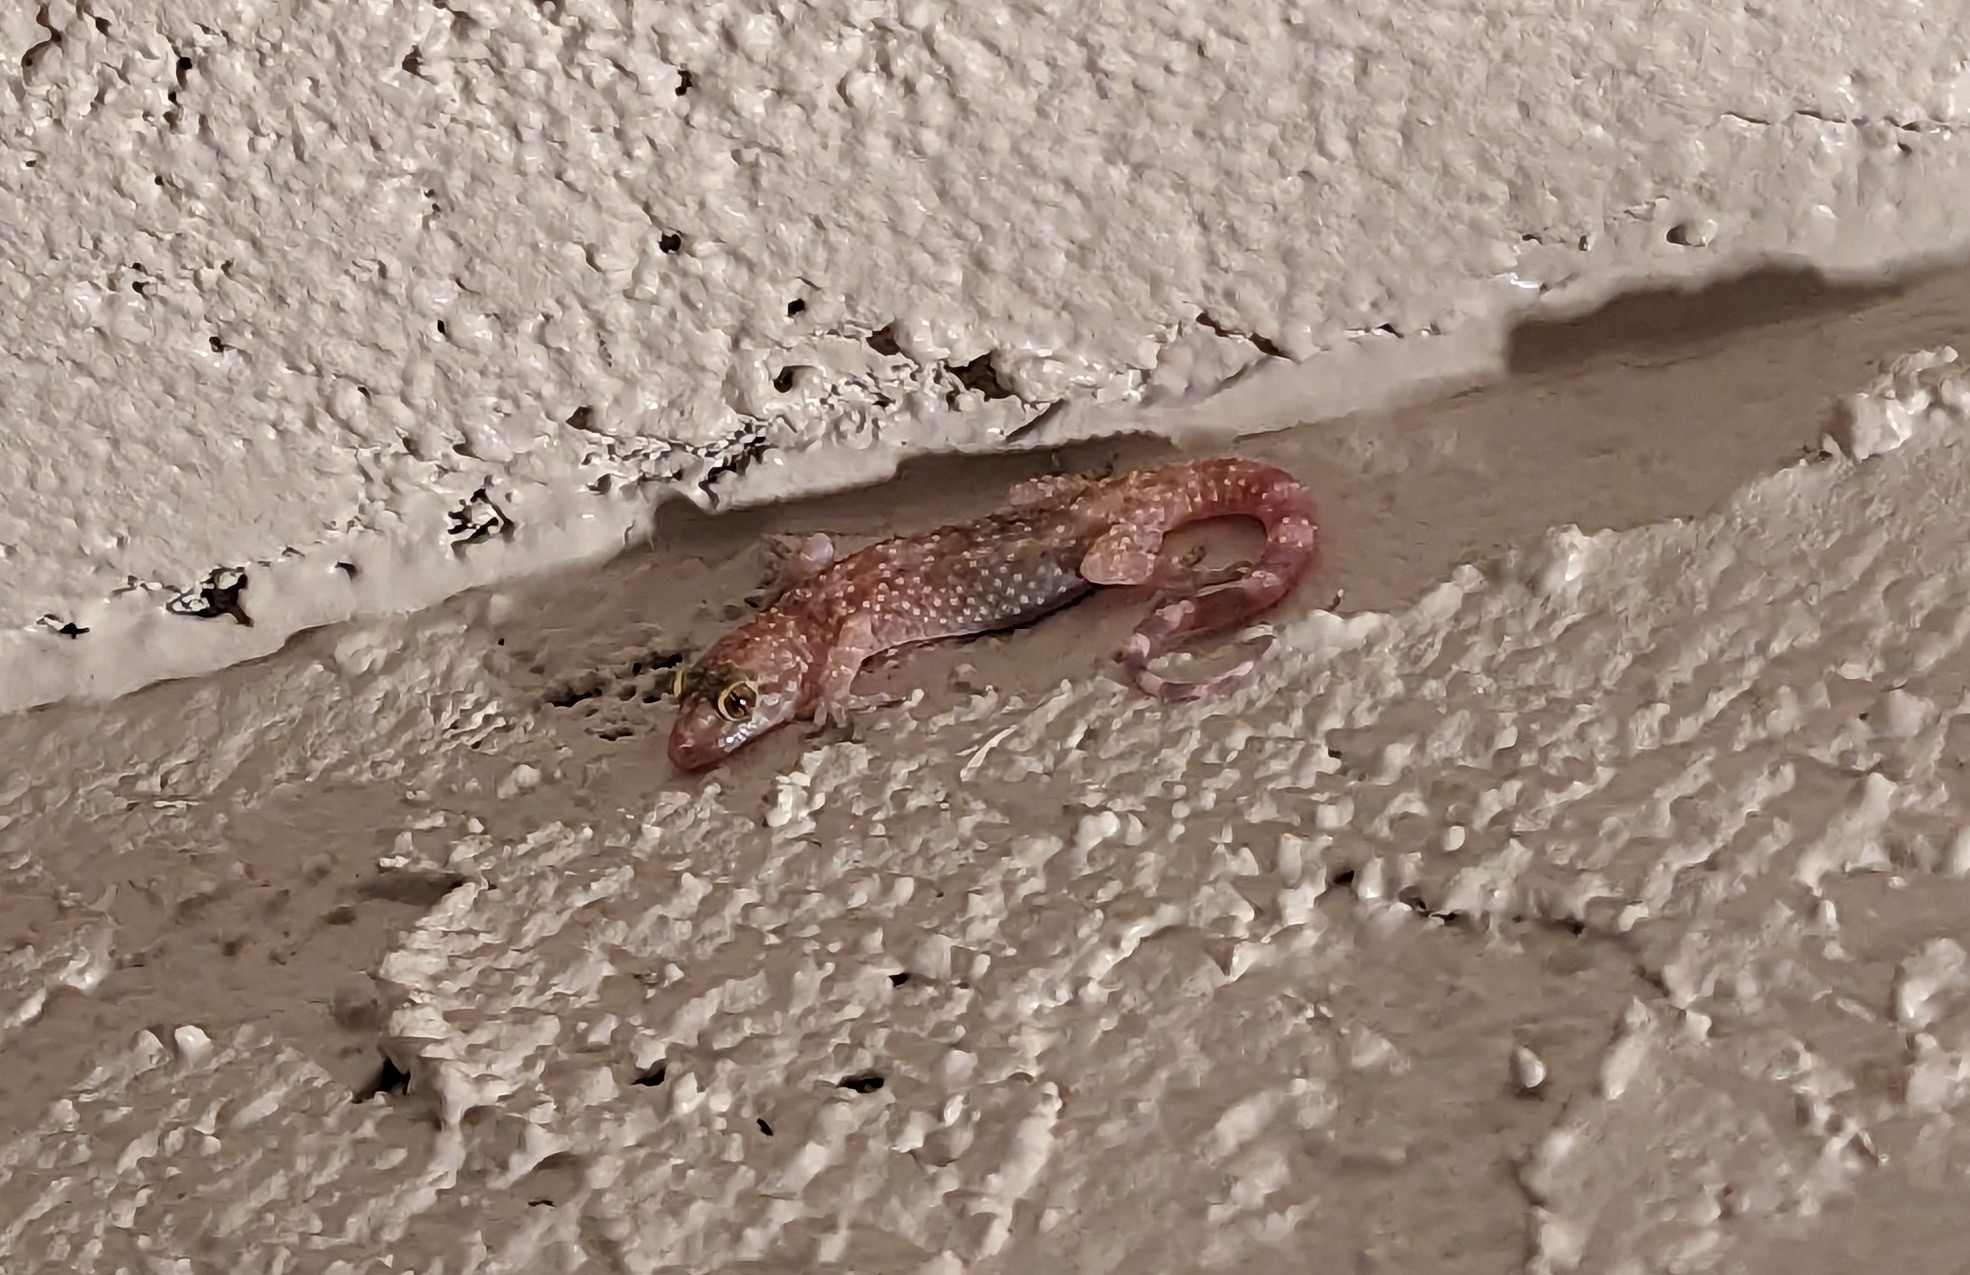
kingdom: Animalia
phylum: Chordata
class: Squamata
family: Gekkonidae
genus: Hemidactylus
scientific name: Hemidactylus turcicus
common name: Turkish gecko
